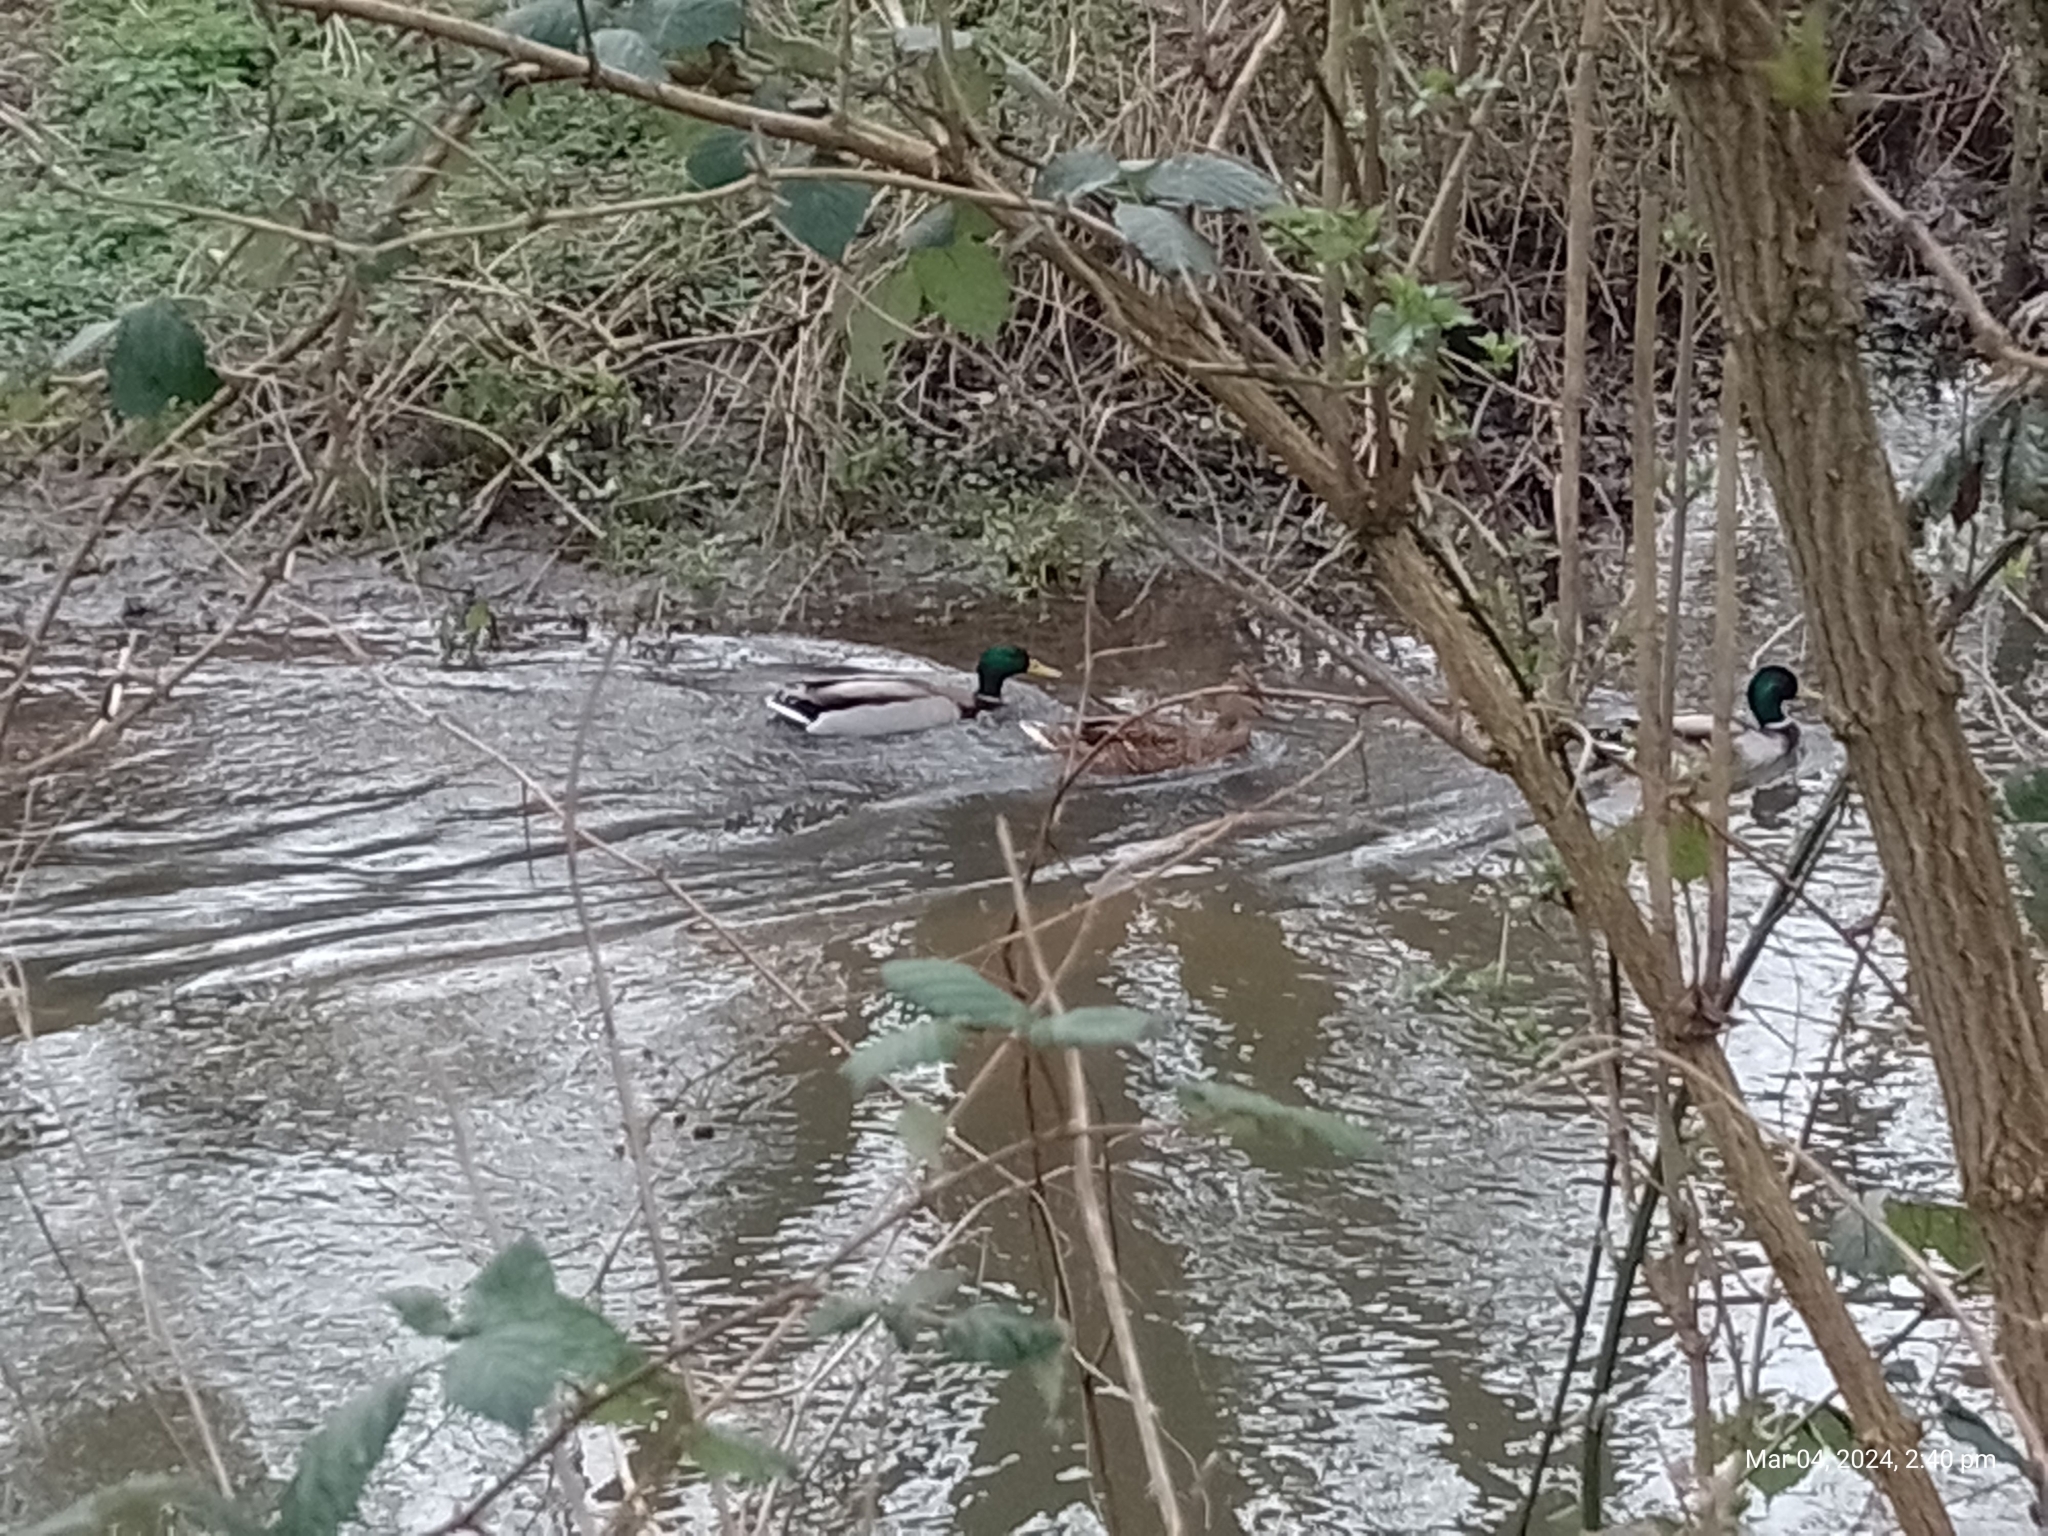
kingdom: Animalia
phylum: Chordata
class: Aves
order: Anseriformes
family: Anatidae
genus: Anas
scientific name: Anas platyrhynchos
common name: Mallard
